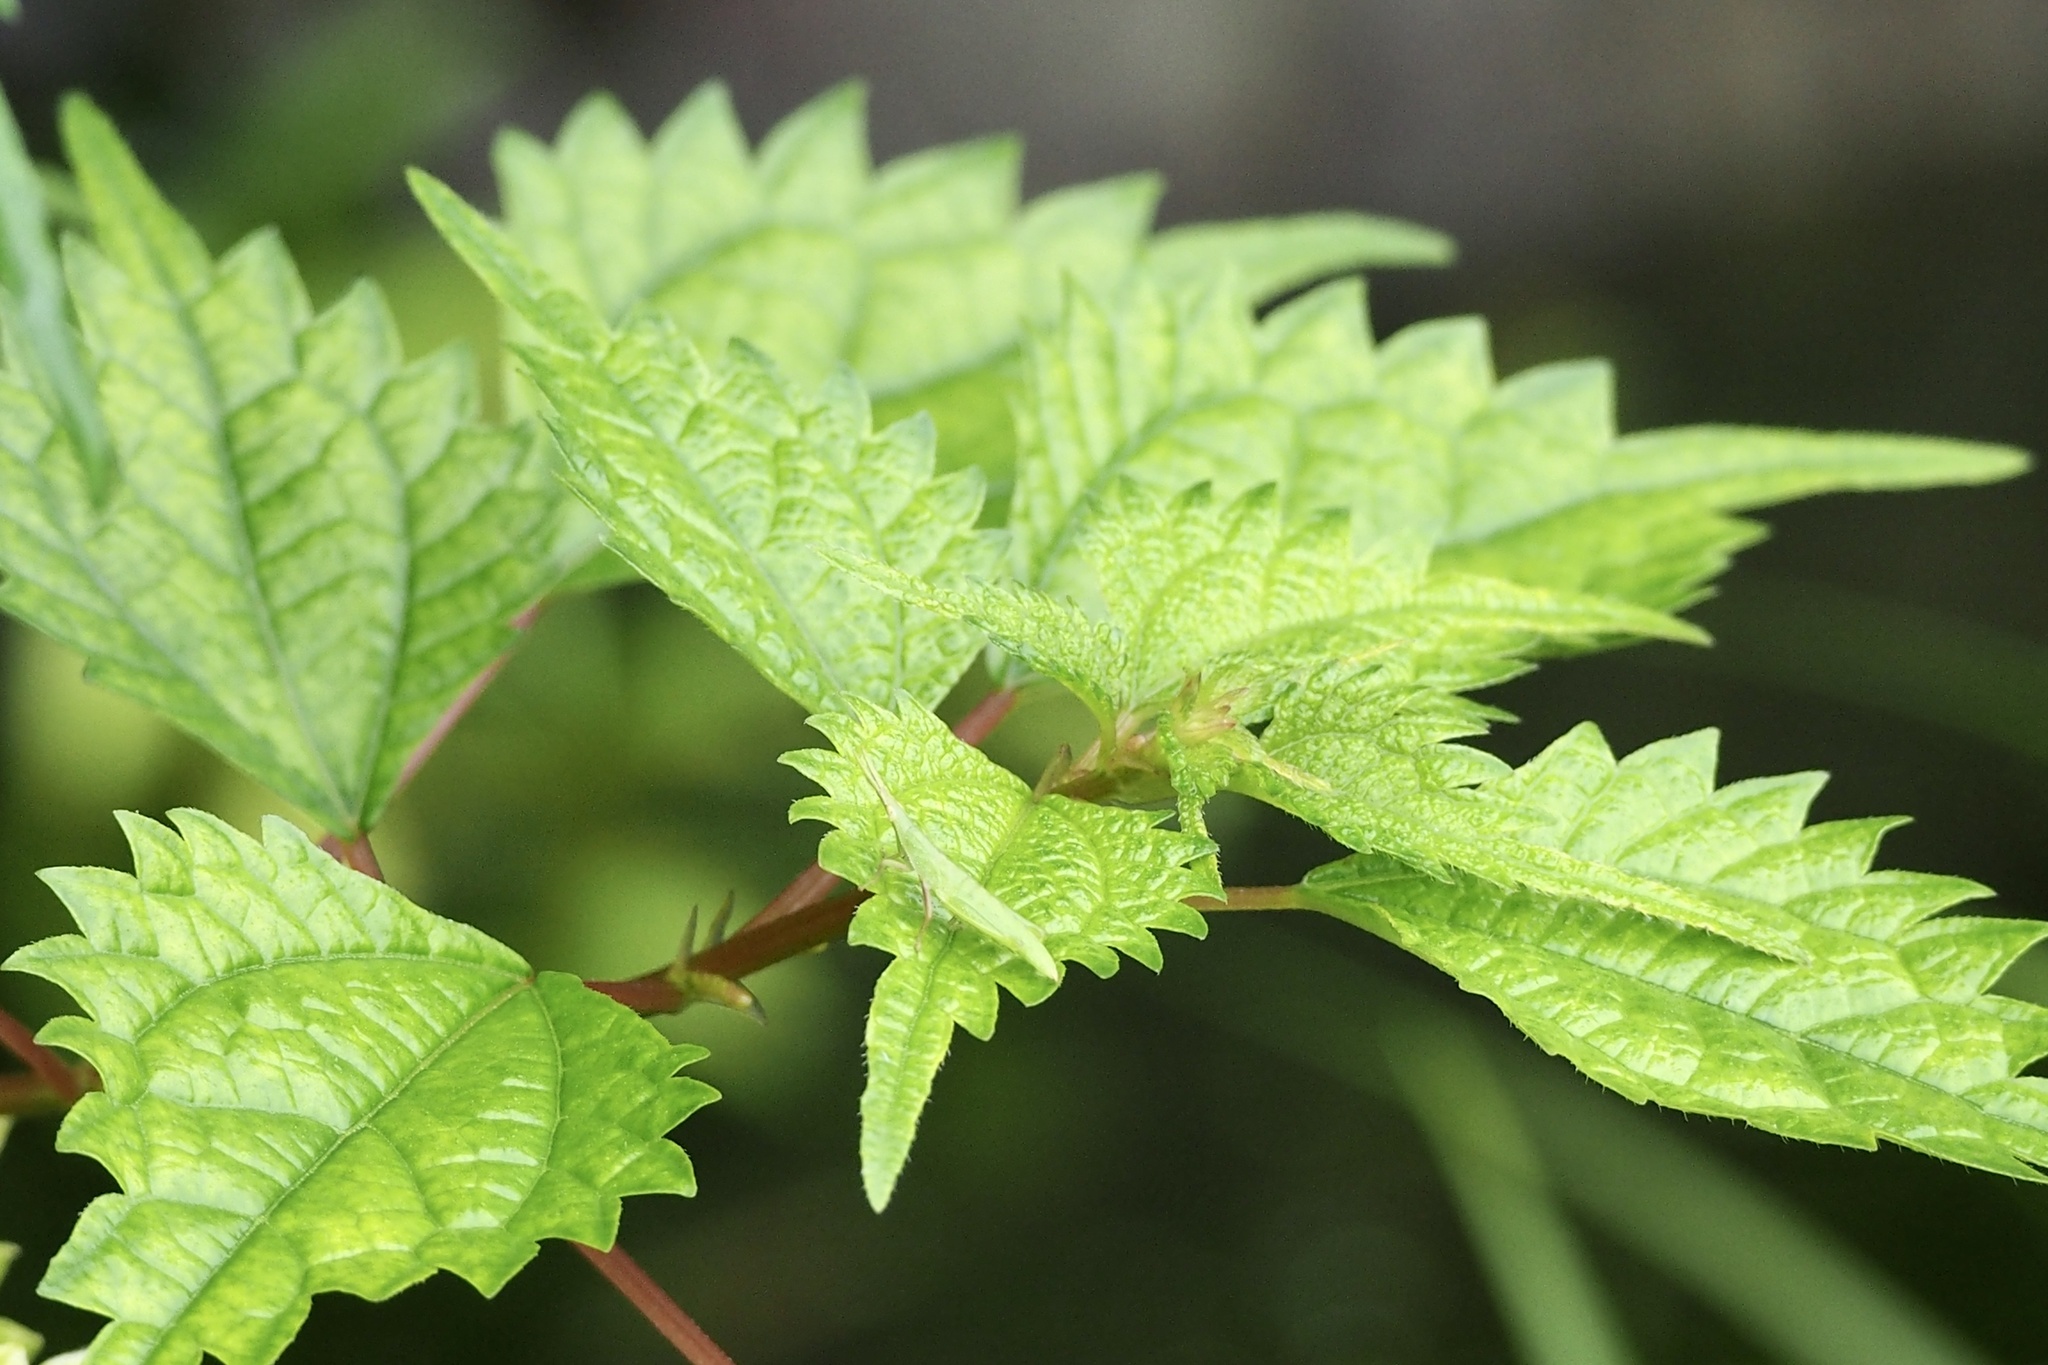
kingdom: Animalia
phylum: Arthropoda
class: Insecta
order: Orthoptera
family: Pyrgomorphidae
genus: Atractomorpha
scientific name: Atractomorpha lata
